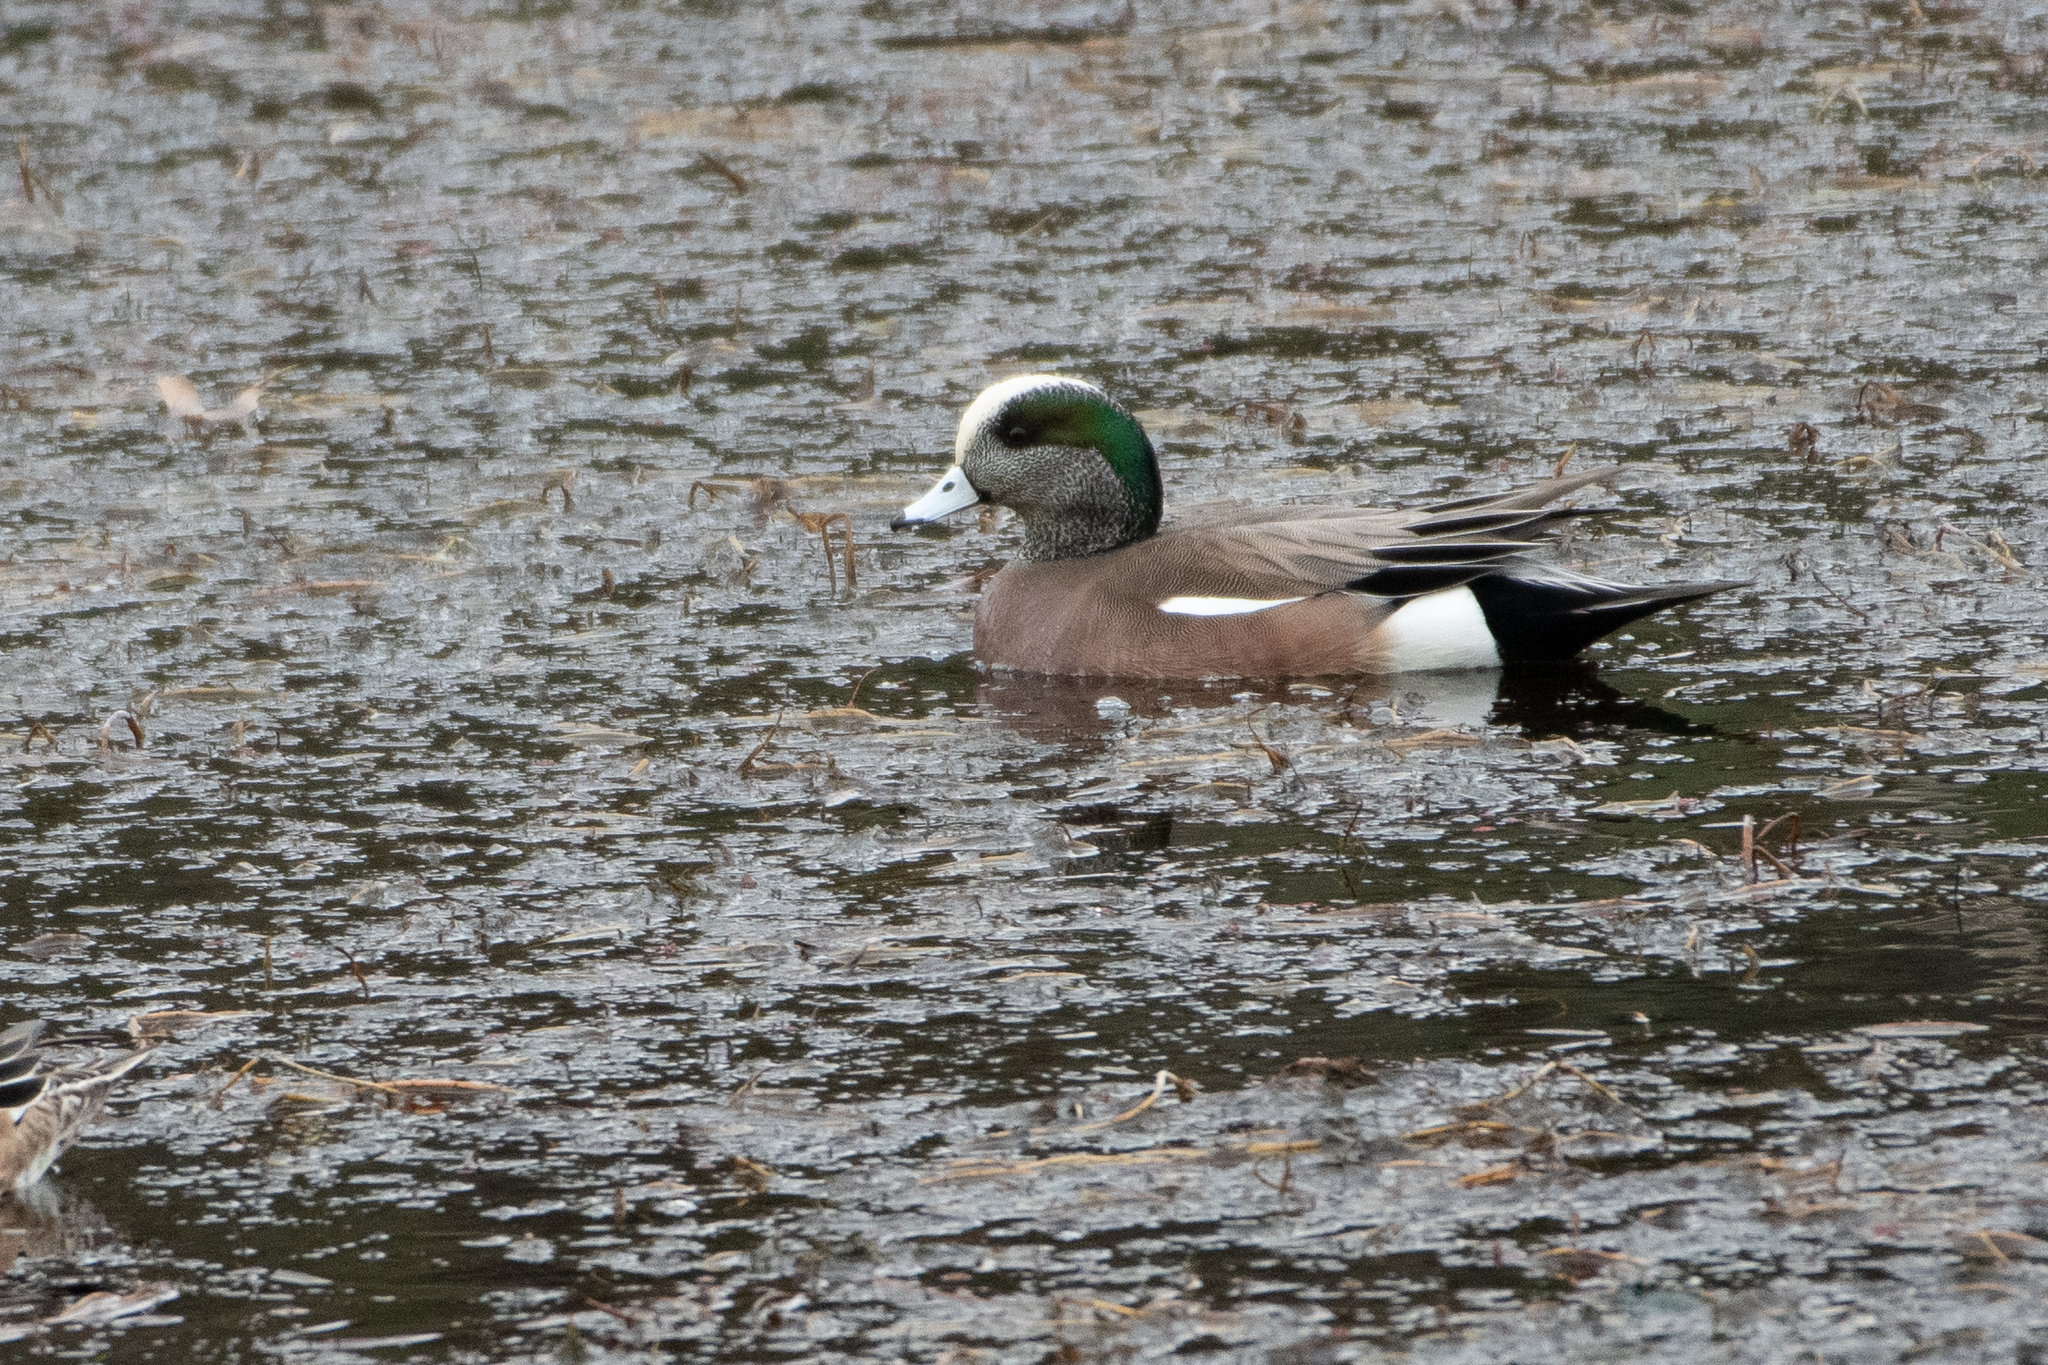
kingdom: Animalia
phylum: Chordata
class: Aves
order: Anseriformes
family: Anatidae
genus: Mareca
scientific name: Mareca americana
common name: American wigeon
